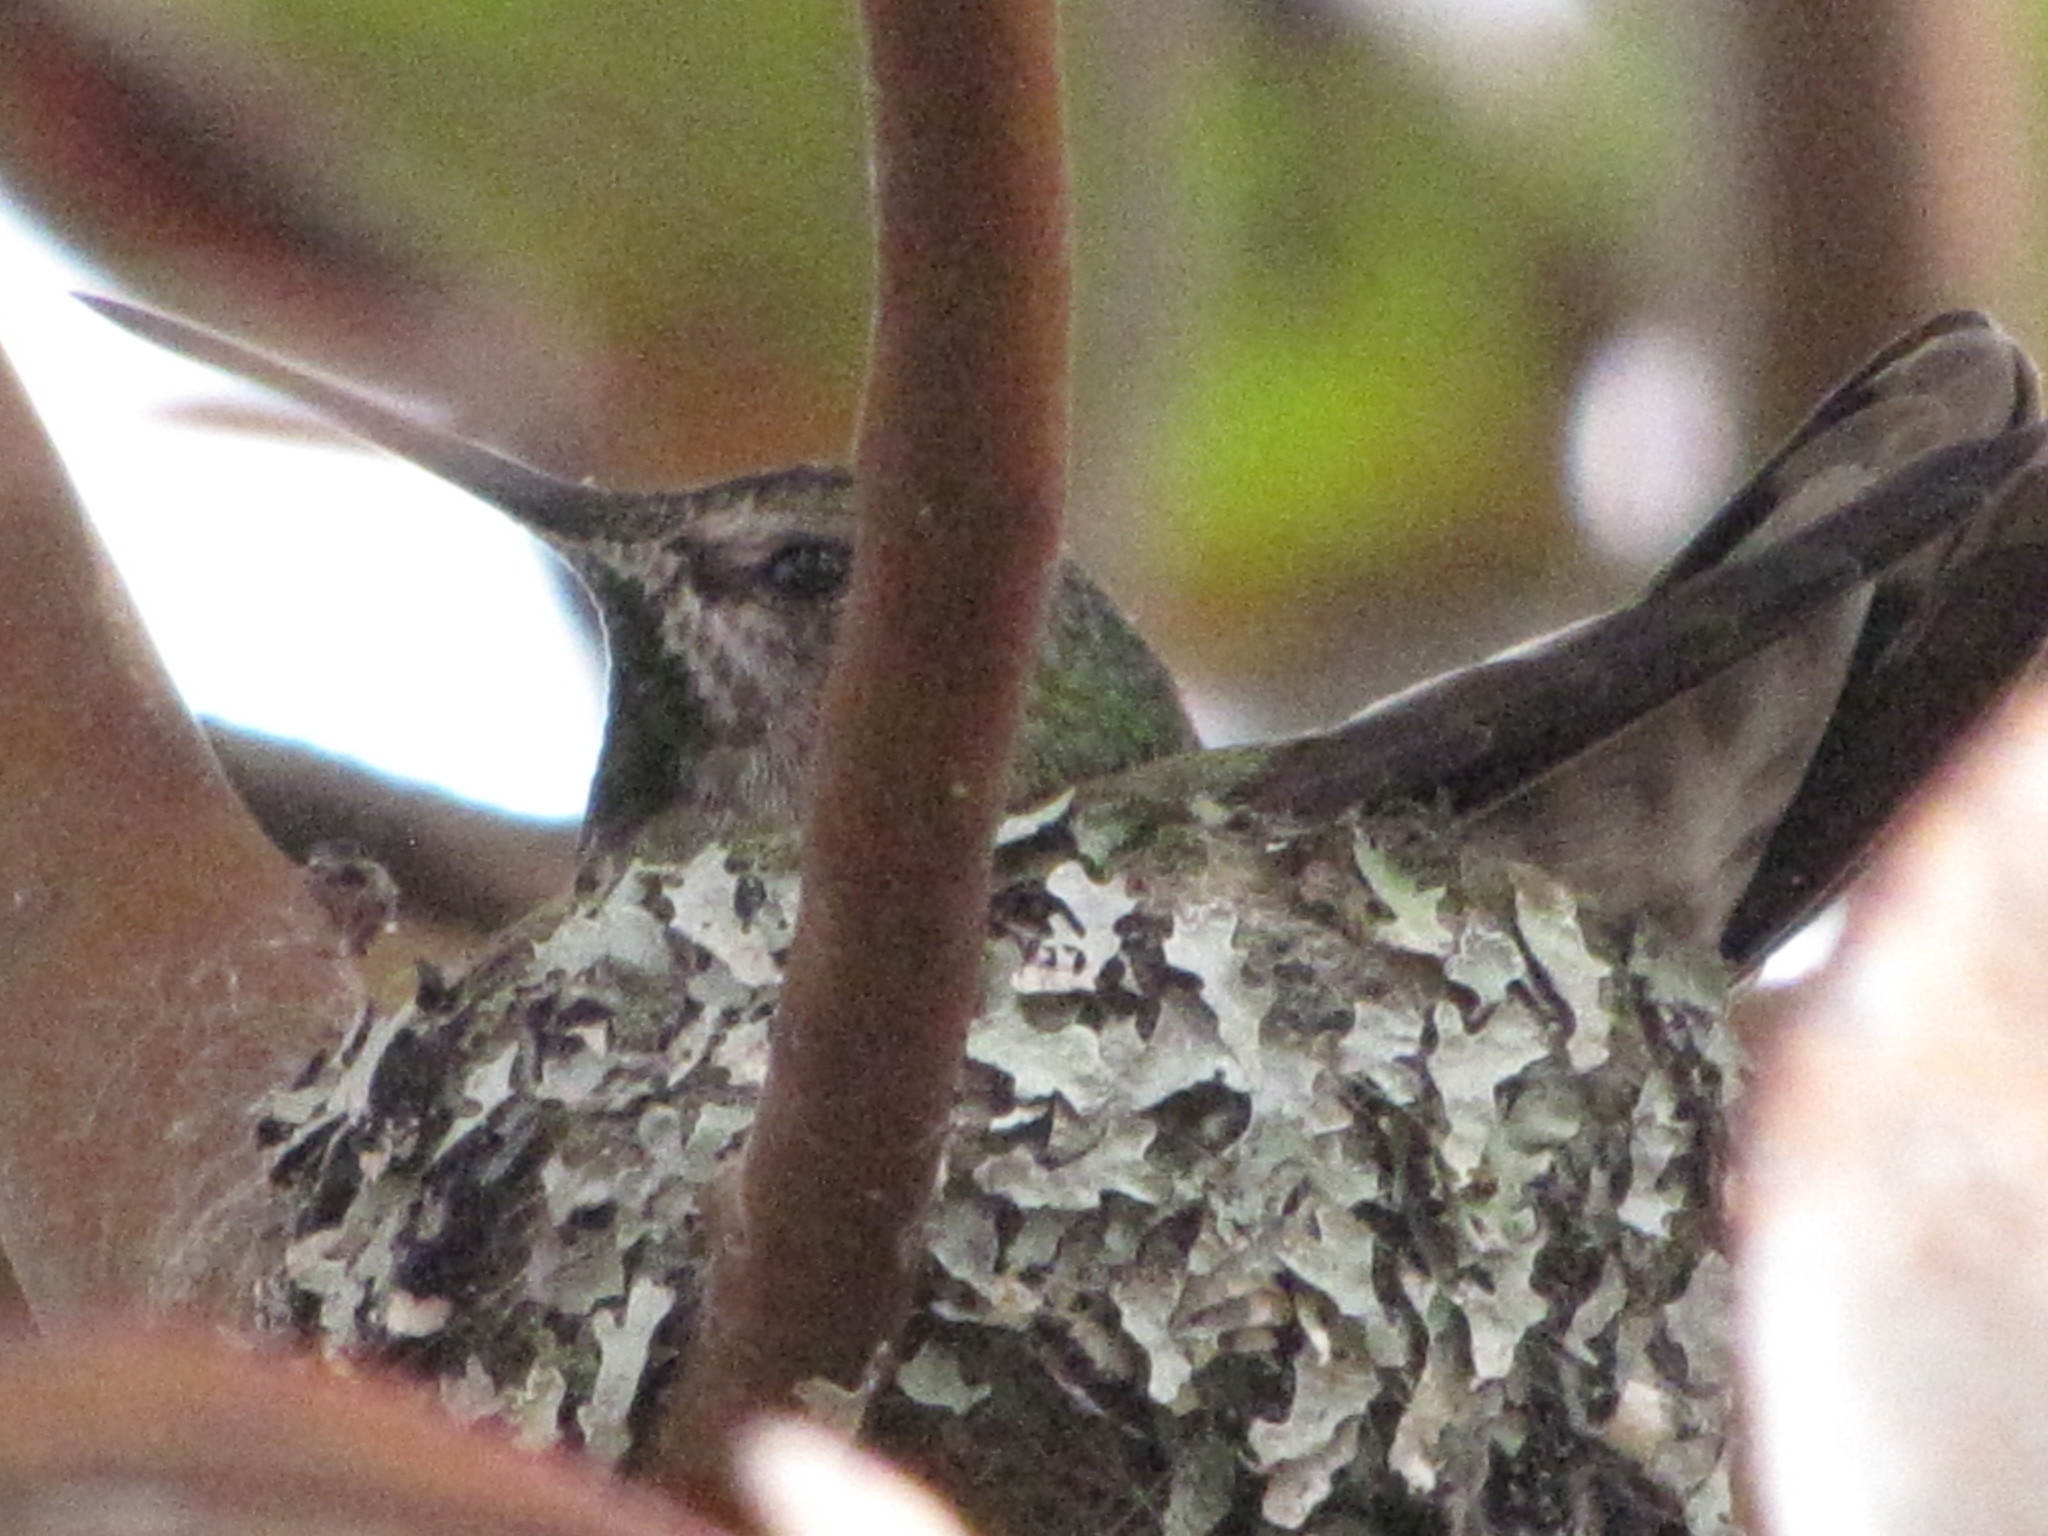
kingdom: Animalia
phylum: Chordata
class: Aves
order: Apodiformes
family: Trochilidae
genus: Calypte
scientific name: Calypte anna
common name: Anna's hummingbird
